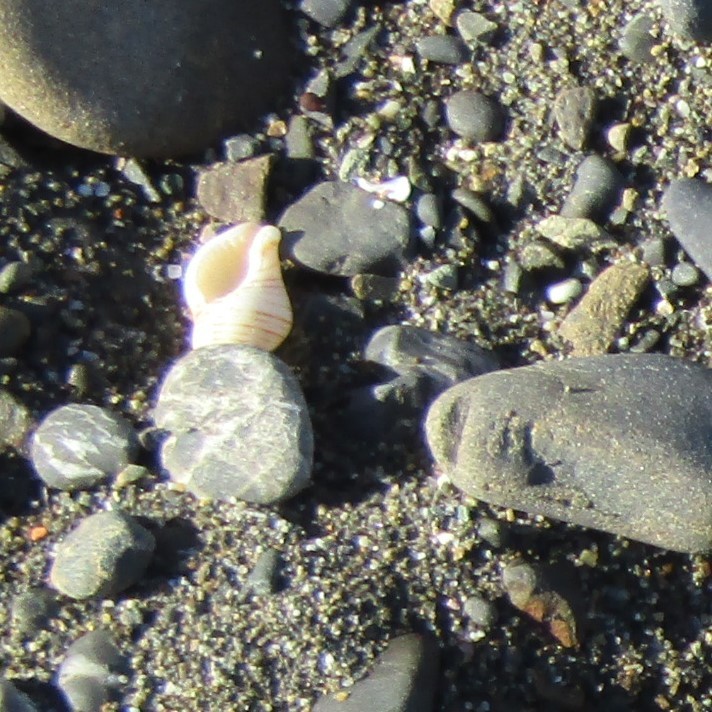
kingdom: Animalia
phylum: Mollusca
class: Gastropoda
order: Neogastropoda
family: Tudiclidae
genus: Buccinulum
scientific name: Buccinulum linea
